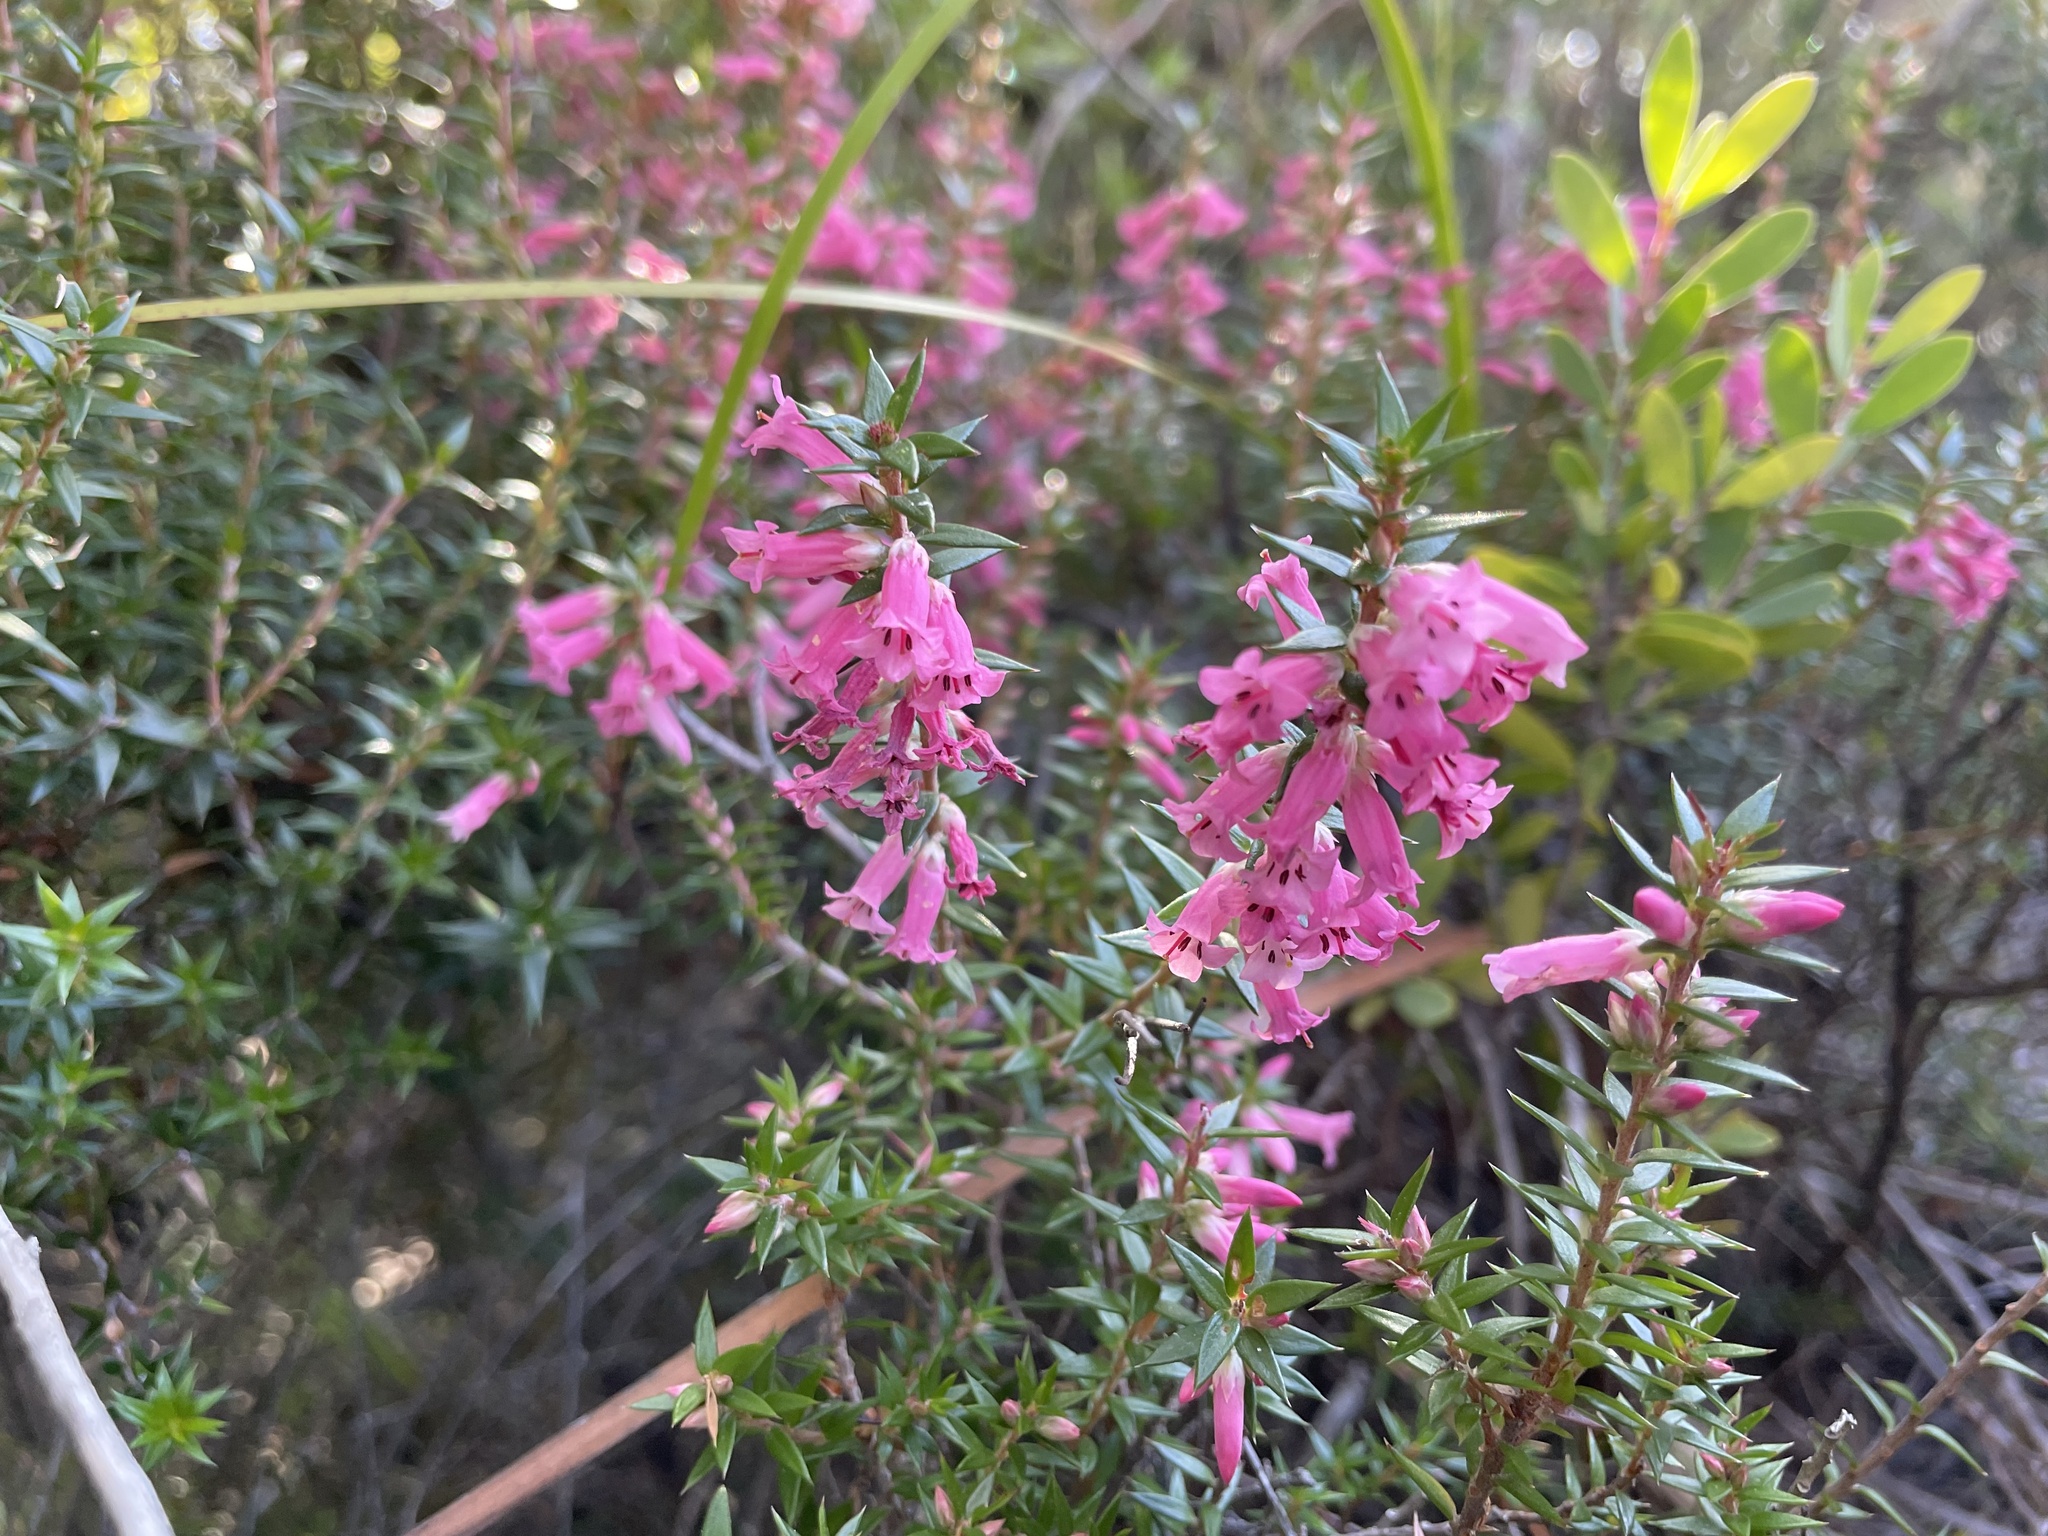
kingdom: Plantae
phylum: Tracheophyta
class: Magnoliopsida
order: Ericales
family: Ericaceae
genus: Epacris
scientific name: Epacris impressa
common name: Common-heath
